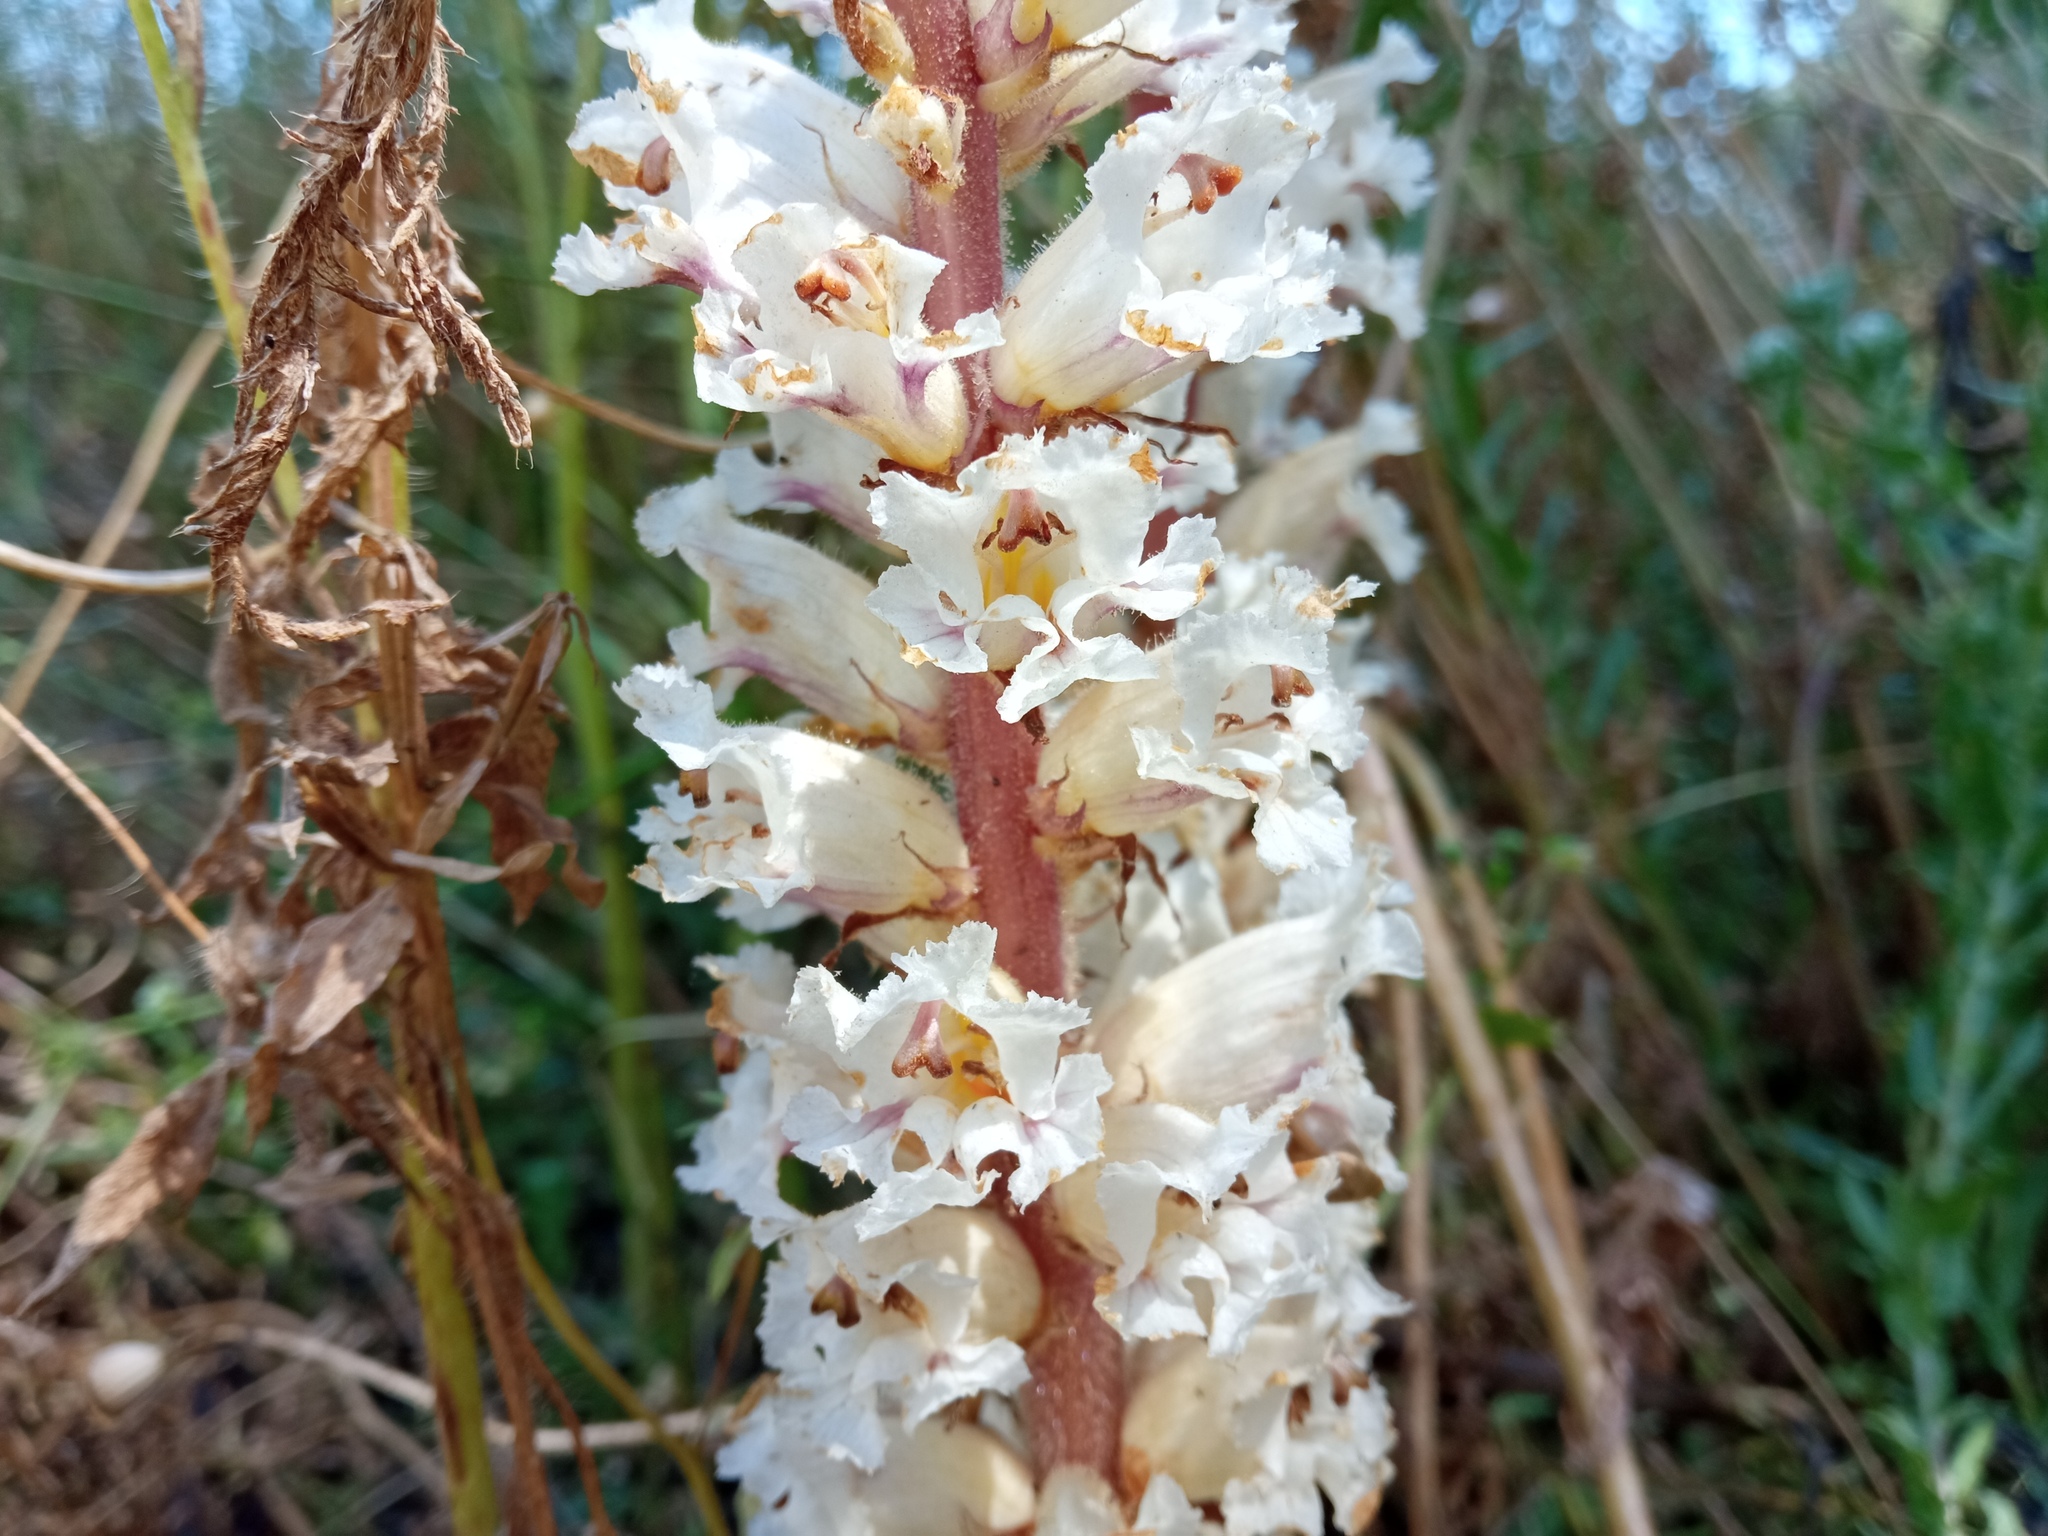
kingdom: Plantae
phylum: Tracheophyta
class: Magnoliopsida
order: Lamiales
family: Orobanchaceae
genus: Orobanche
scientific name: Orobanche crenata
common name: Bean broomrape
